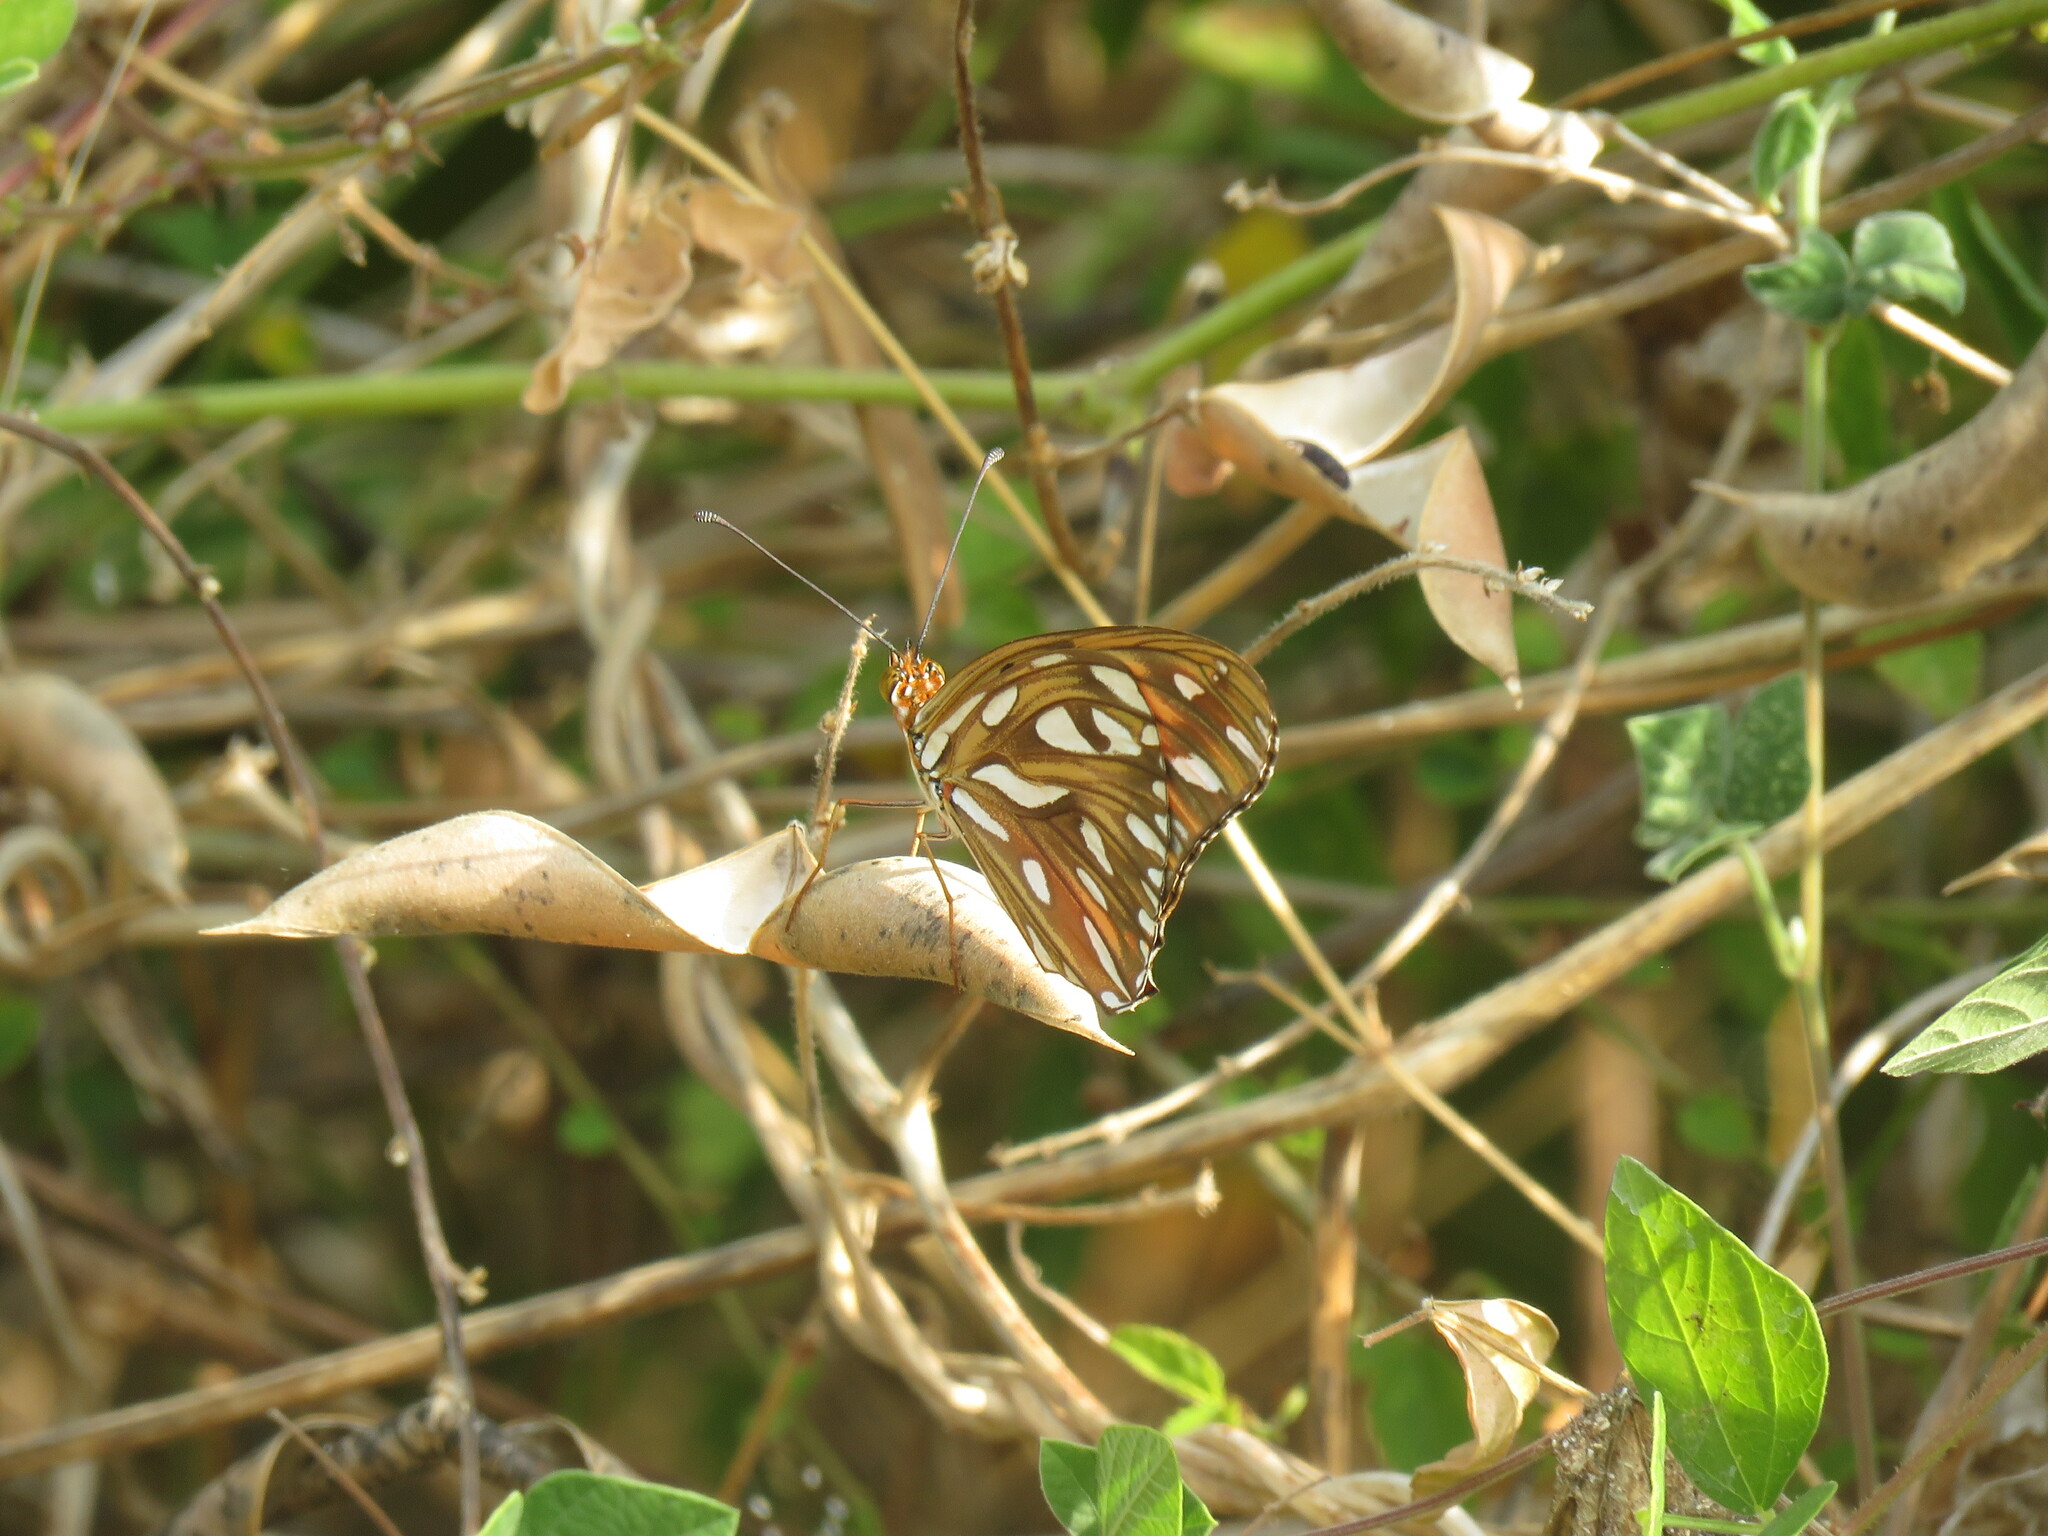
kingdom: Animalia
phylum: Arthropoda
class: Insecta
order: Lepidoptera
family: Nymphalidae
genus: Dione
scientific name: Dione vanillae
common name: Gulf fritillary
